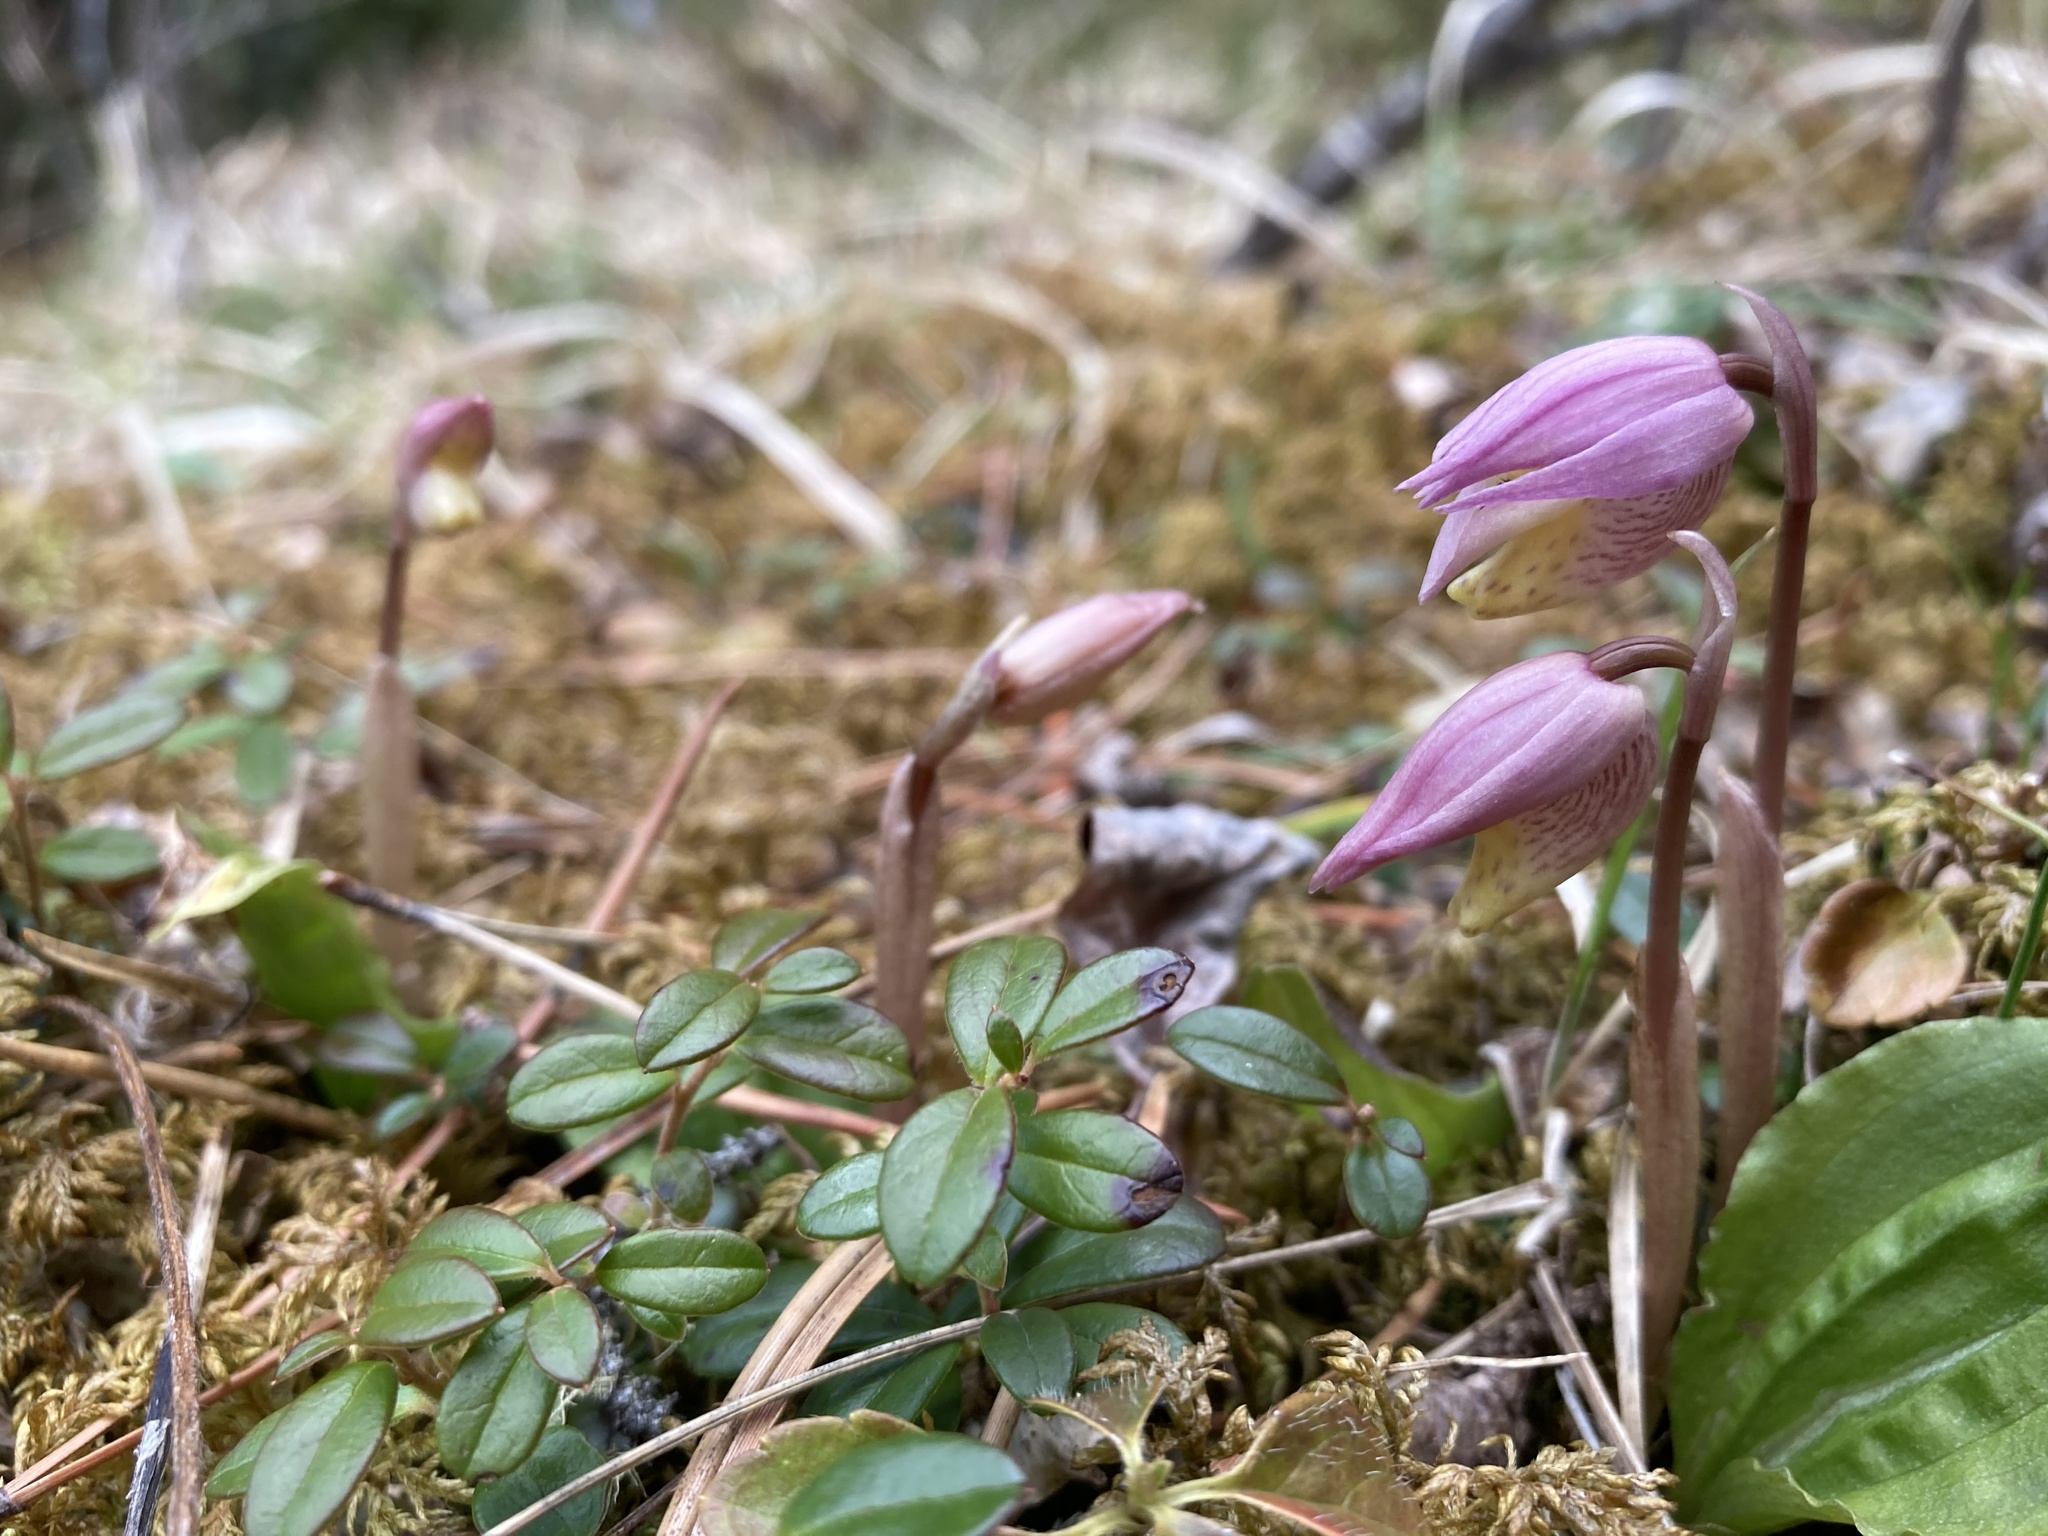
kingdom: Plantae
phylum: Tracheophyta
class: Liliopsida
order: Asparagales
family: Orchidaceae
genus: Calypso
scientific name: Calypso bulbosa
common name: Calypso
